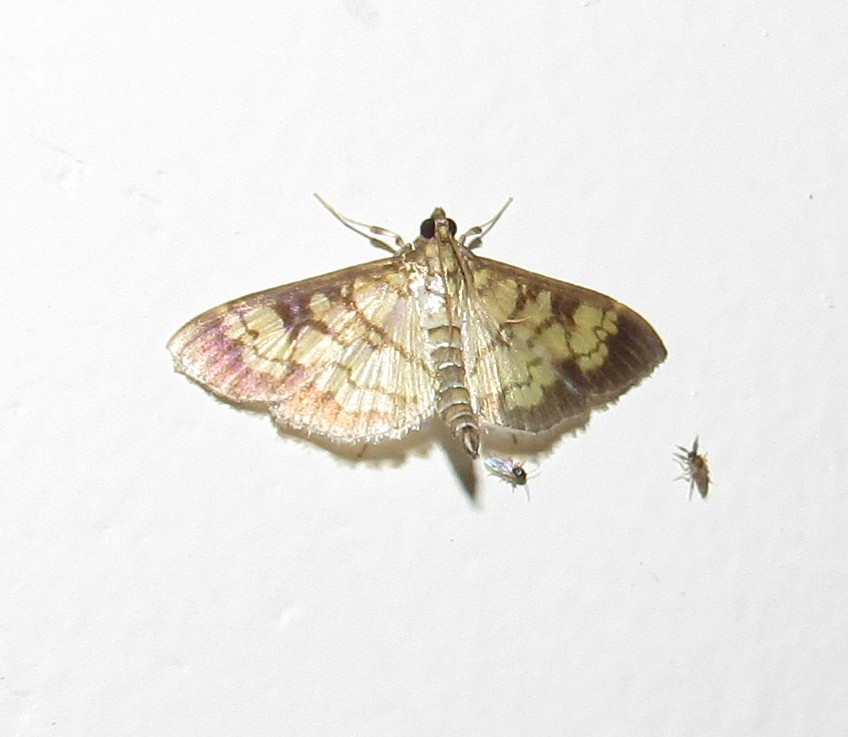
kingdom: Animalia
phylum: Arthropoda
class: Insecta
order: Lepidoptera
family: Crambidae
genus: Ategumia
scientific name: Ategumia matutinalis
